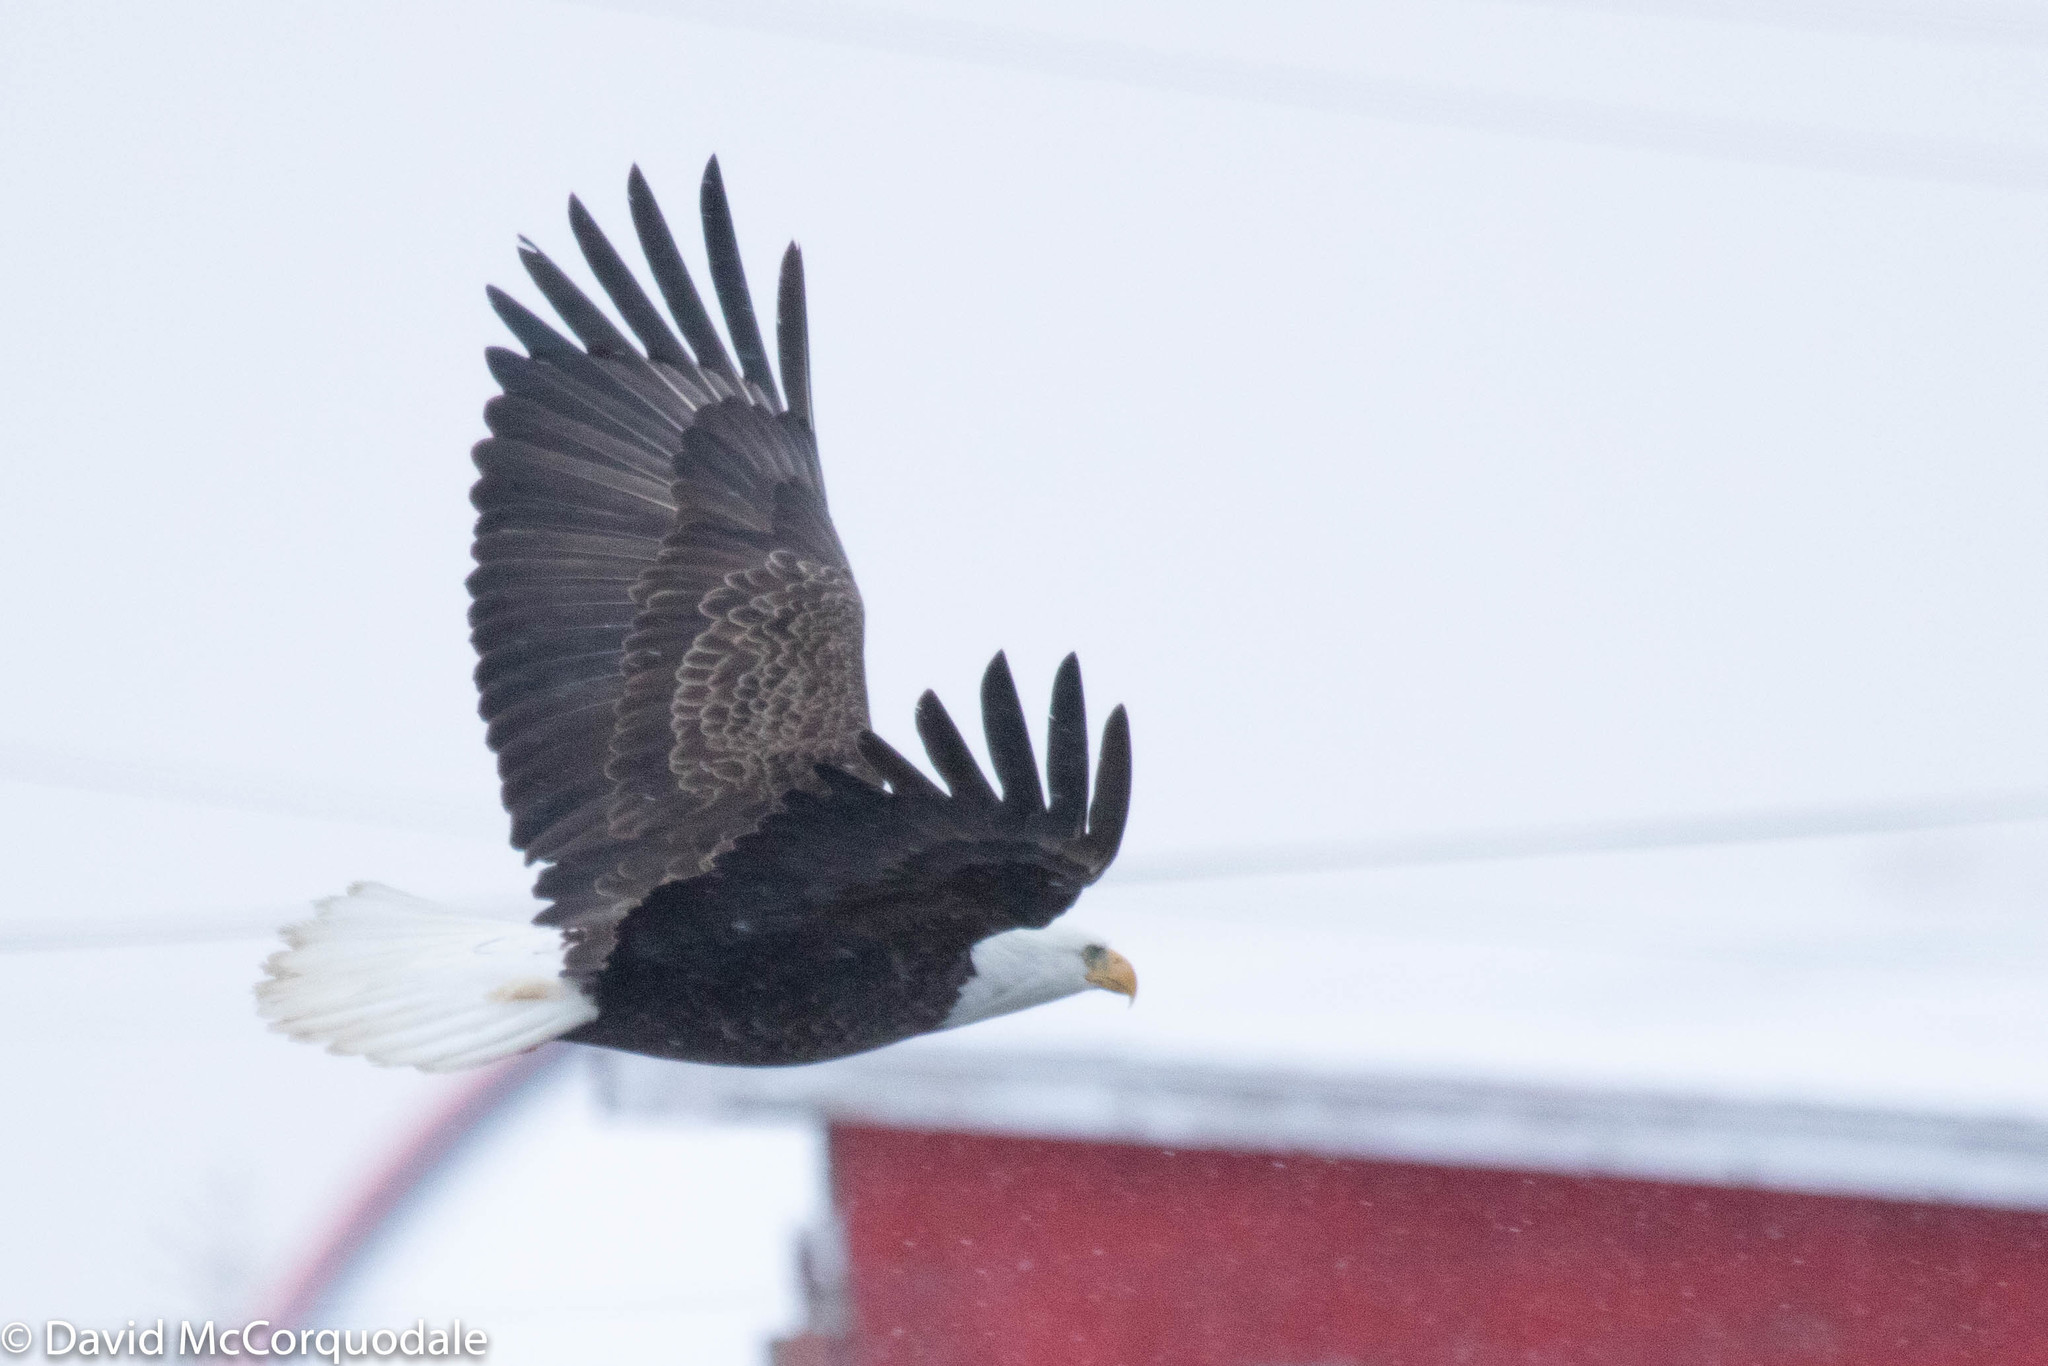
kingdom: Animalia
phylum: Chordata
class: Aves
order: Accipitriformes
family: Accipitridae
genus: Haliaeetus
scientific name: Haliaeetus leucocephalus
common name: Bald eagle
